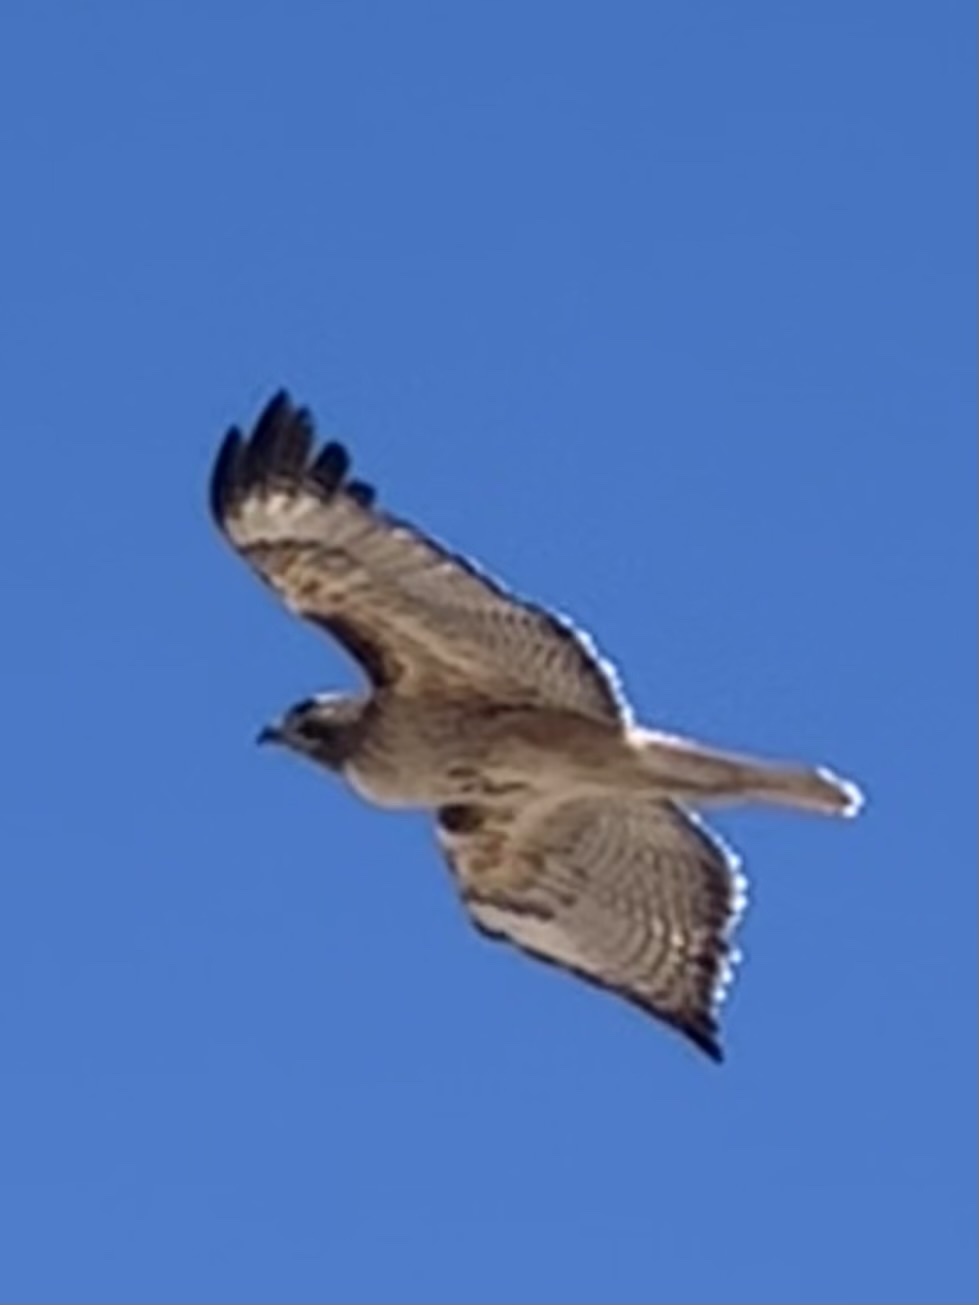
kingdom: Animalia
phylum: Chordata
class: Aves
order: Accipitriformes
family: Accipitridae
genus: Buteo
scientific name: Buteo jamaicensis
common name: Red-tailed hawk
